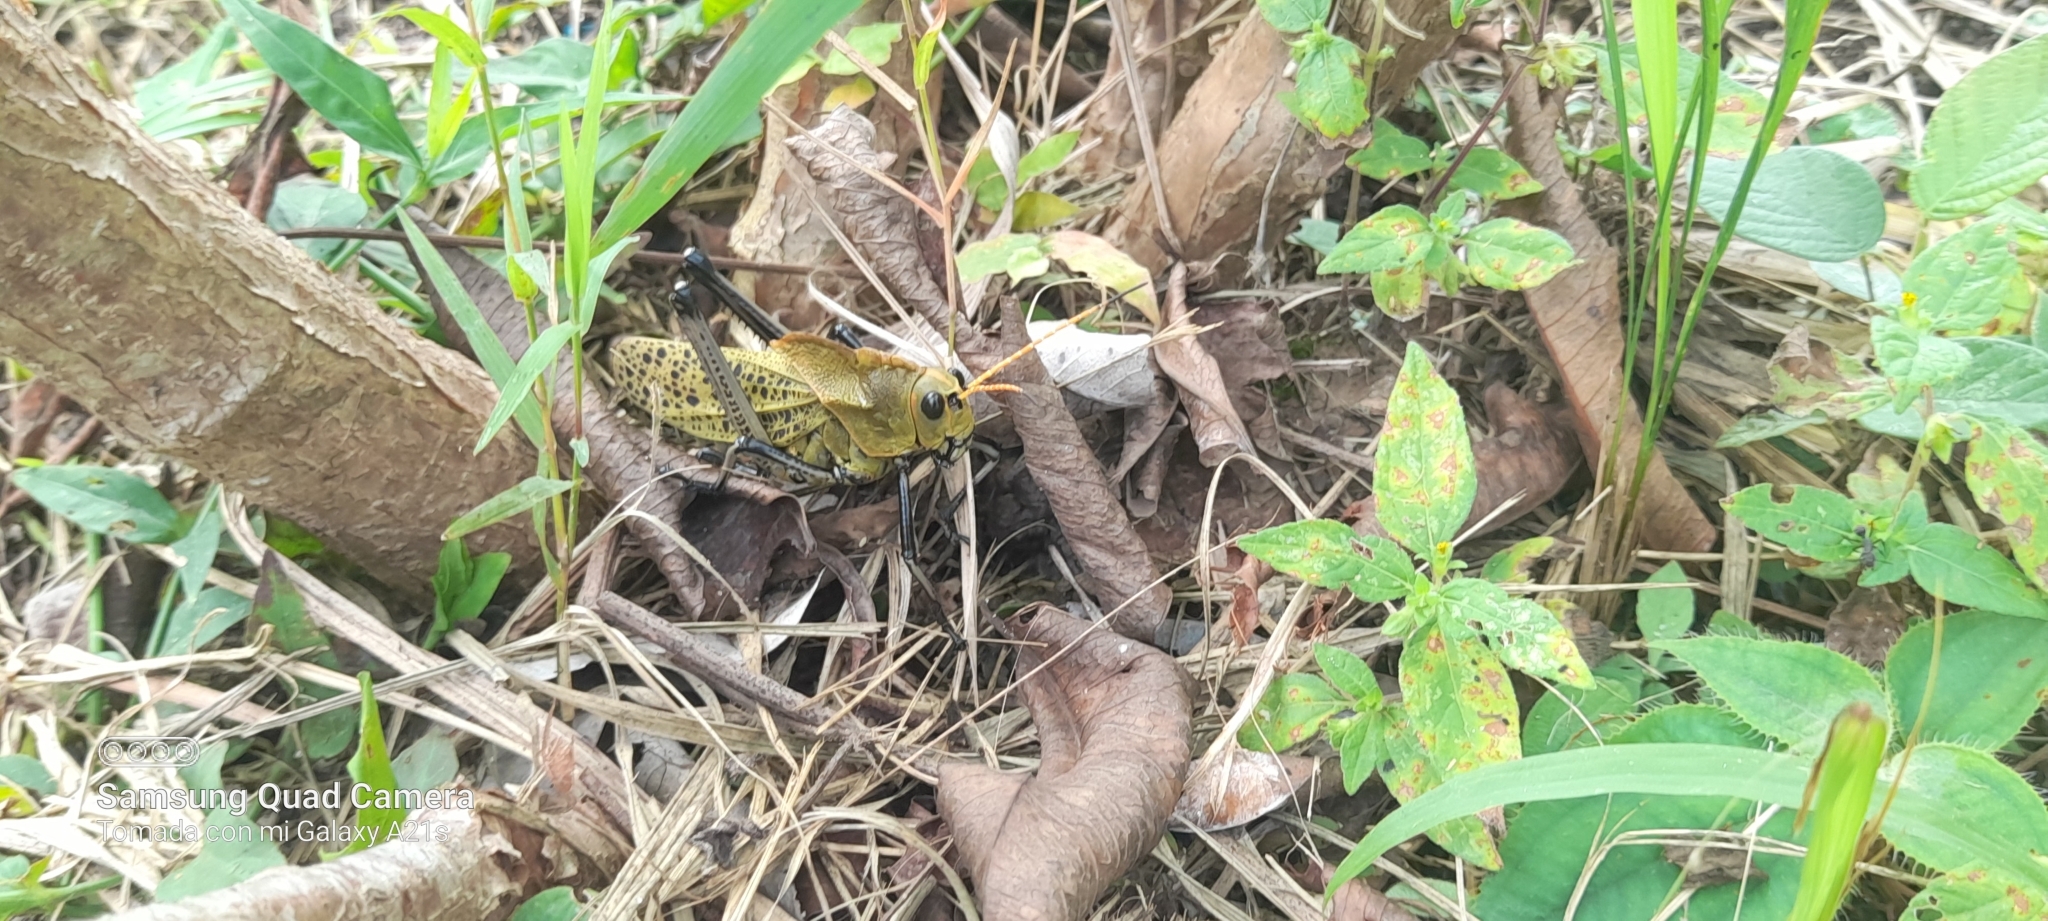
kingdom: Animalia
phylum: Arthropoda
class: Insecta
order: Orthoptera
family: Romaleidae
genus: Romalea
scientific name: Romalea
